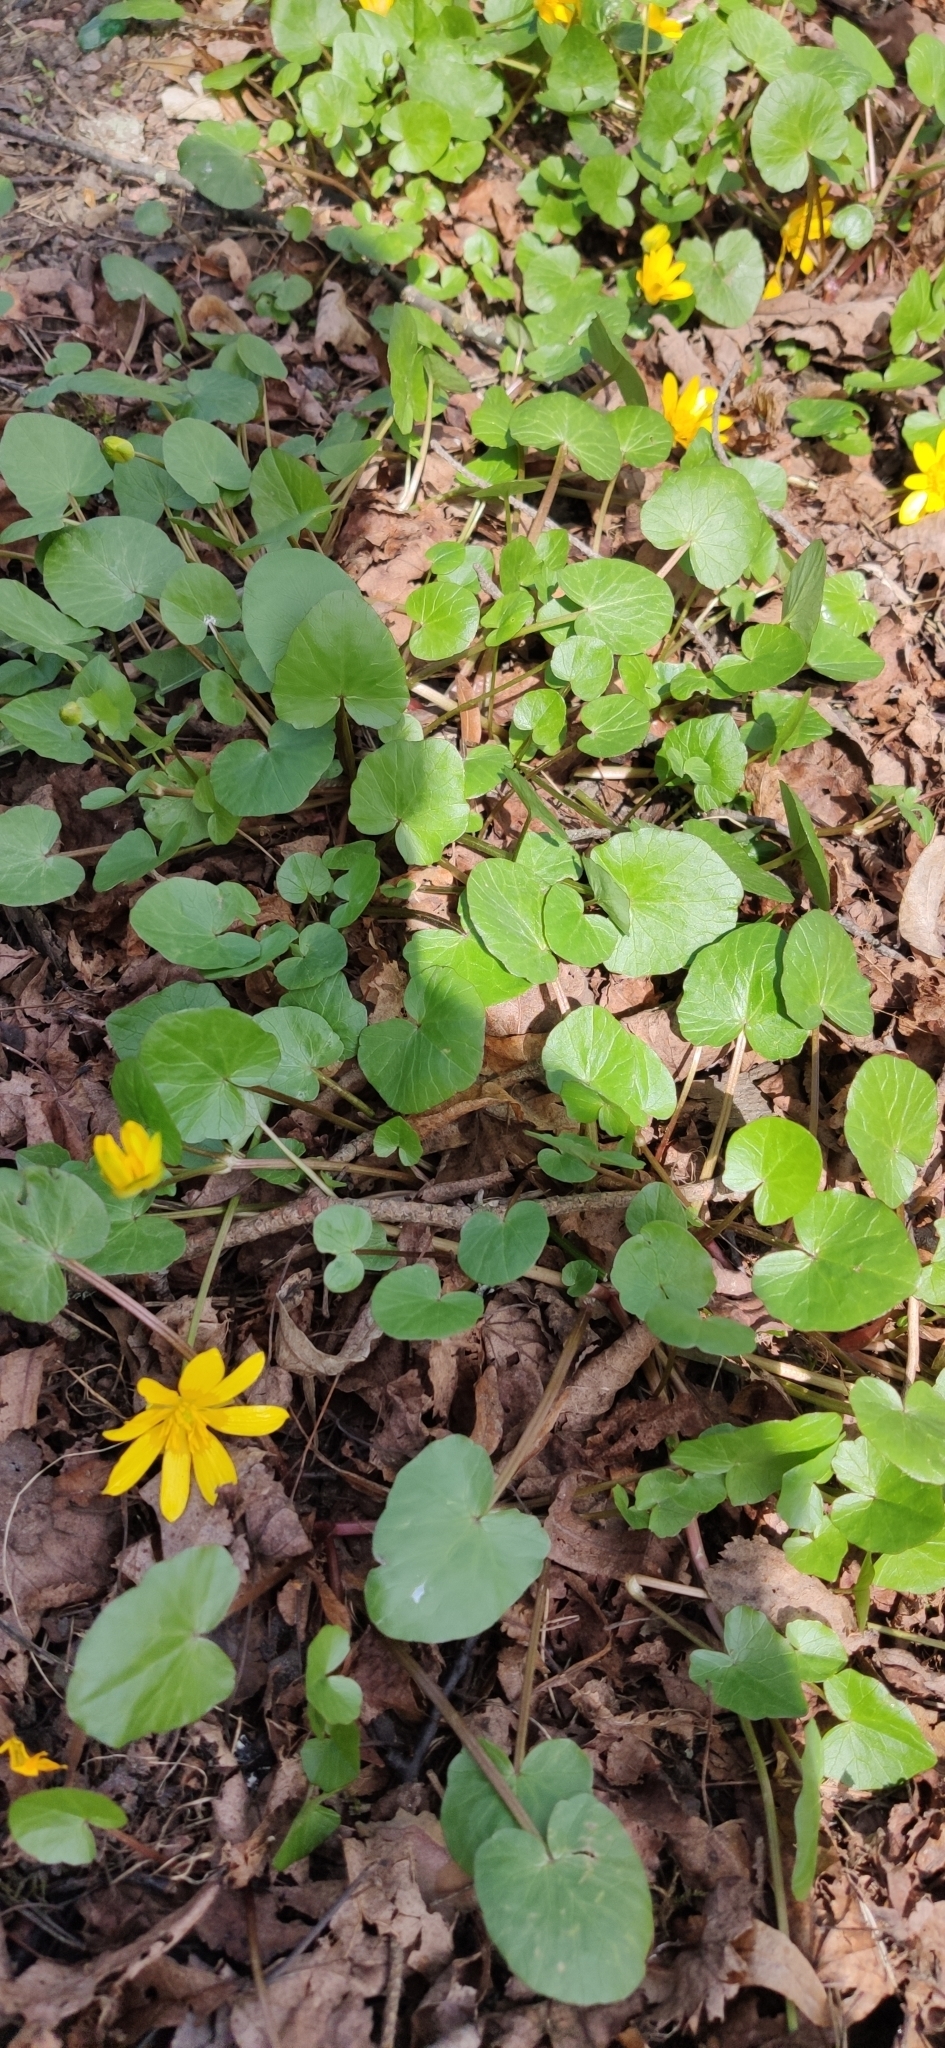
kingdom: Plantae
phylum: Tracheophyta
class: Magnoliopsida
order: Ranunculales
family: Ranunculaceae
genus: Ficaria
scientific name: Ficaria verna
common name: Lesser celandine
